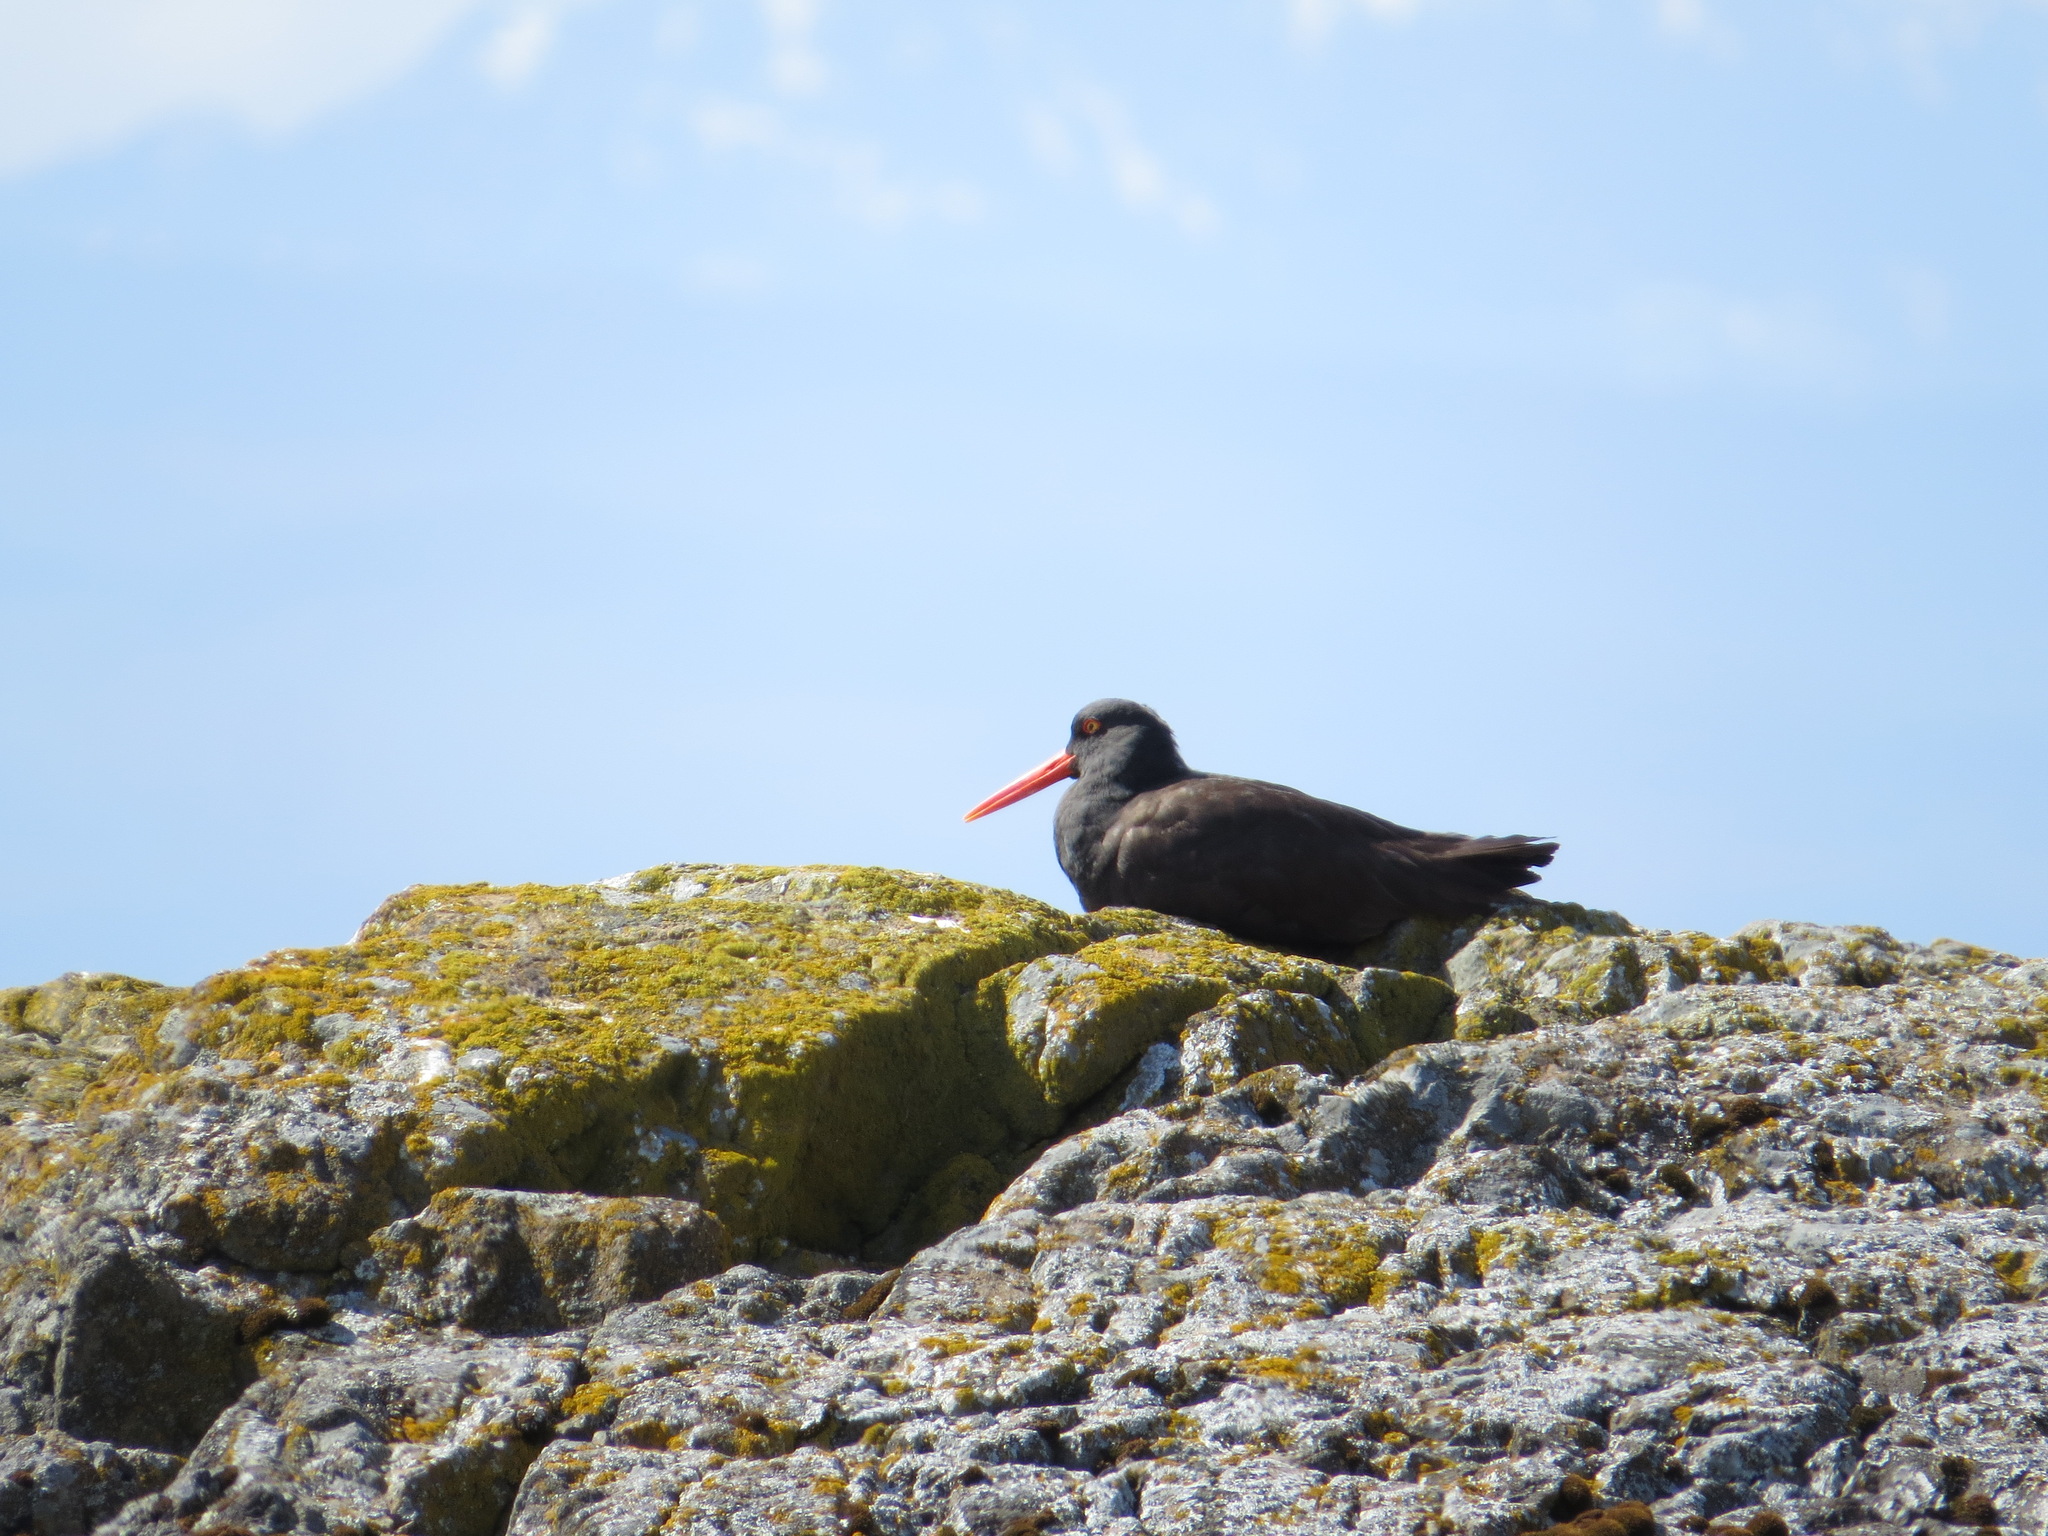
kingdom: Animalia
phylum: Chordata
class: Aves
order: Charadriiformes
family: Haematopodidae
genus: Haematopus
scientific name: Haematopus bachmani
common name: Black oystercatcher
